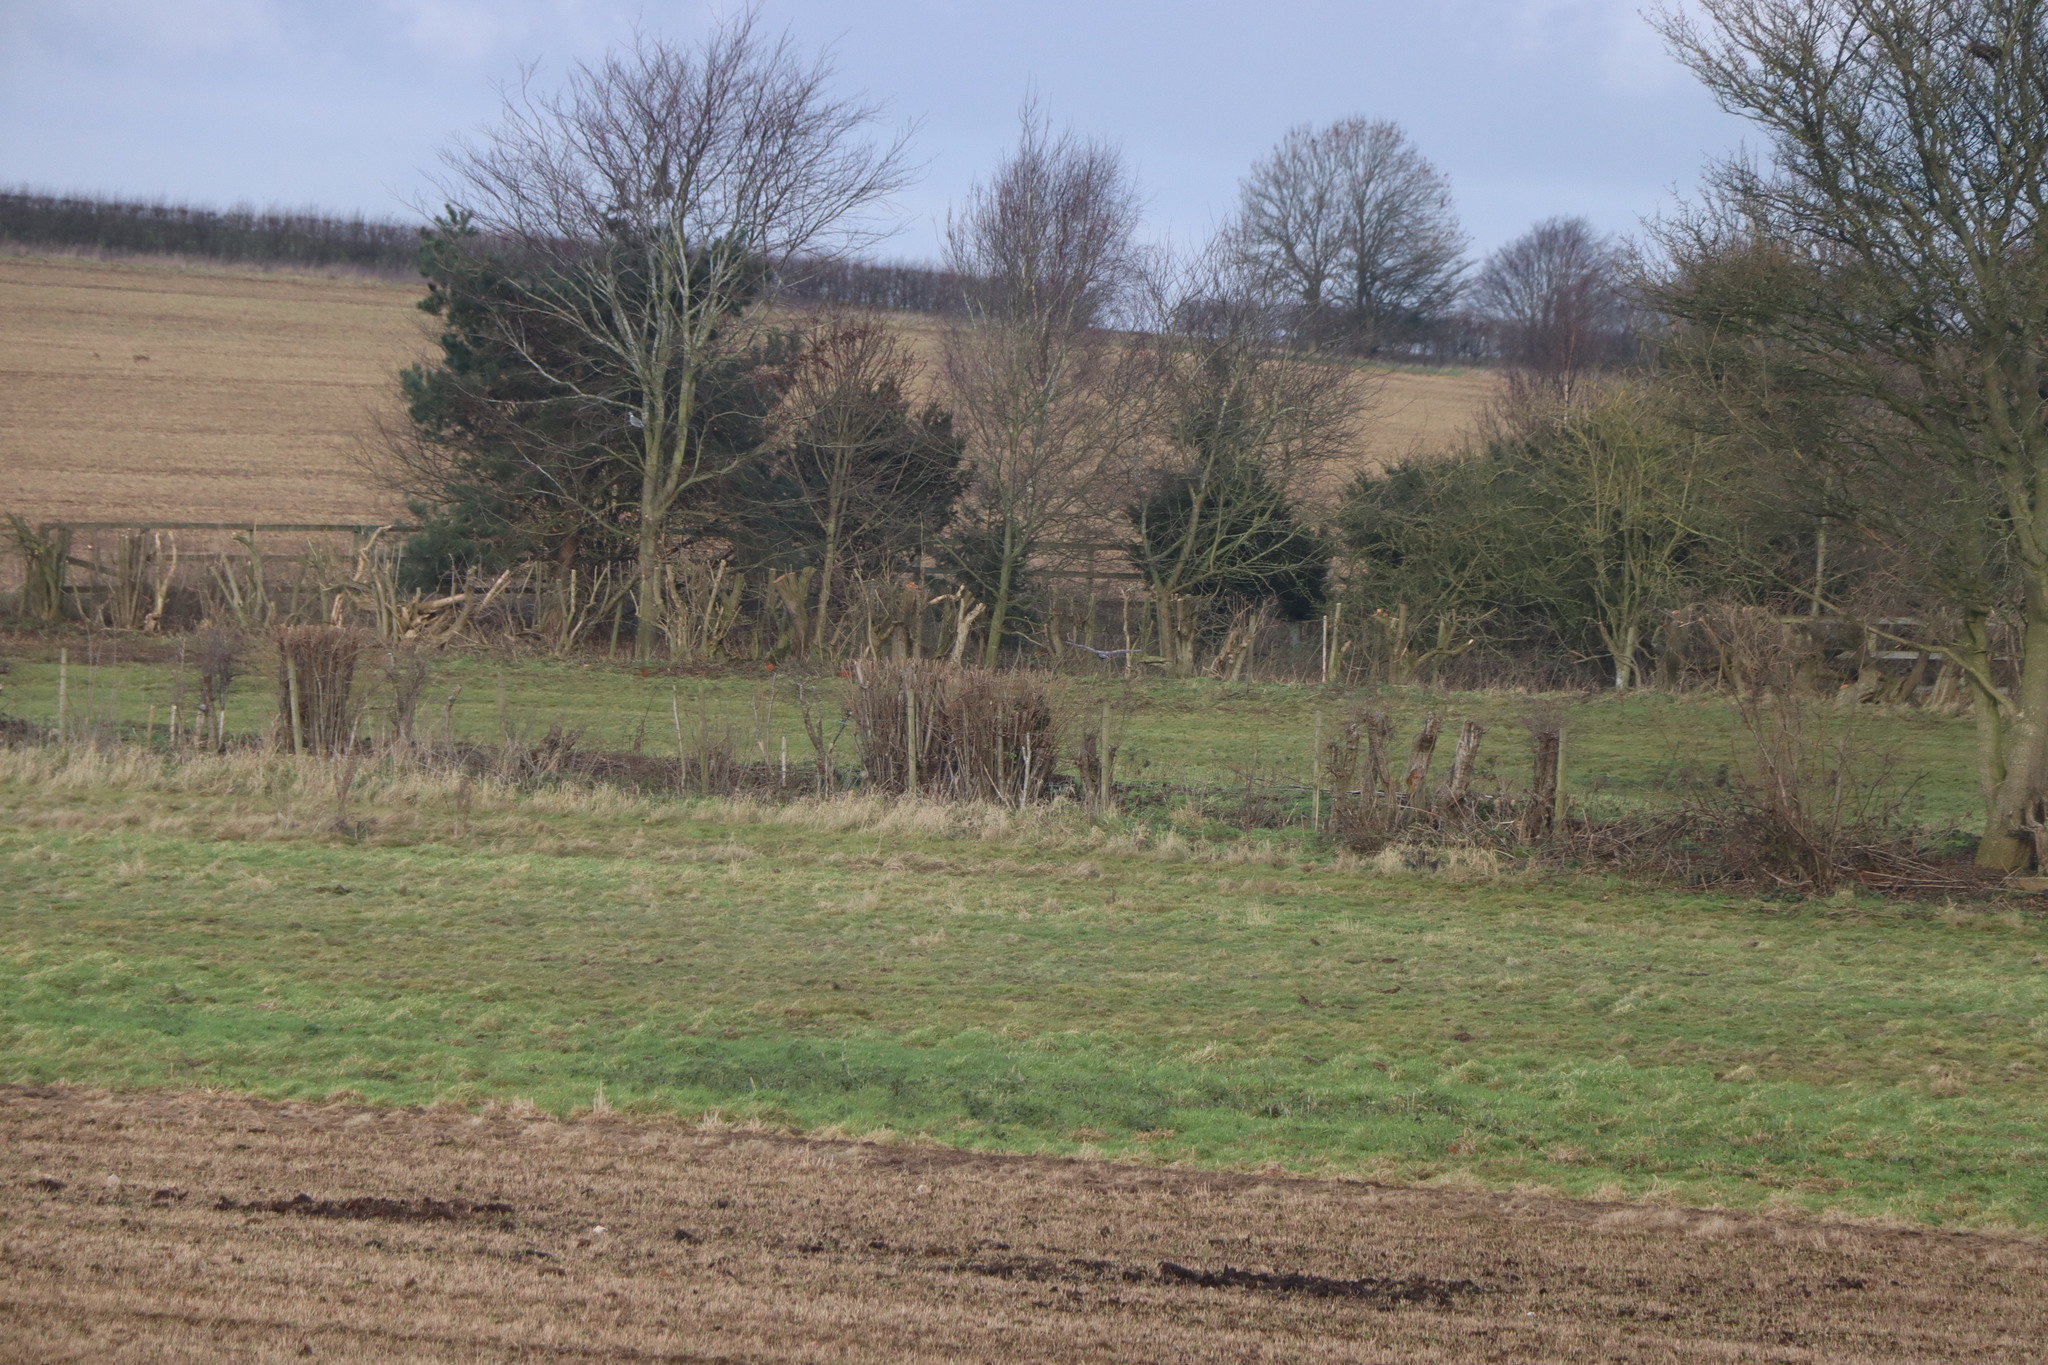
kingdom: Animalia
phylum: Chordata
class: Aves
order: Accipitriformes
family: Accipitridae
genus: Buteo
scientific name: Buteo buteo
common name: Common buzzard
